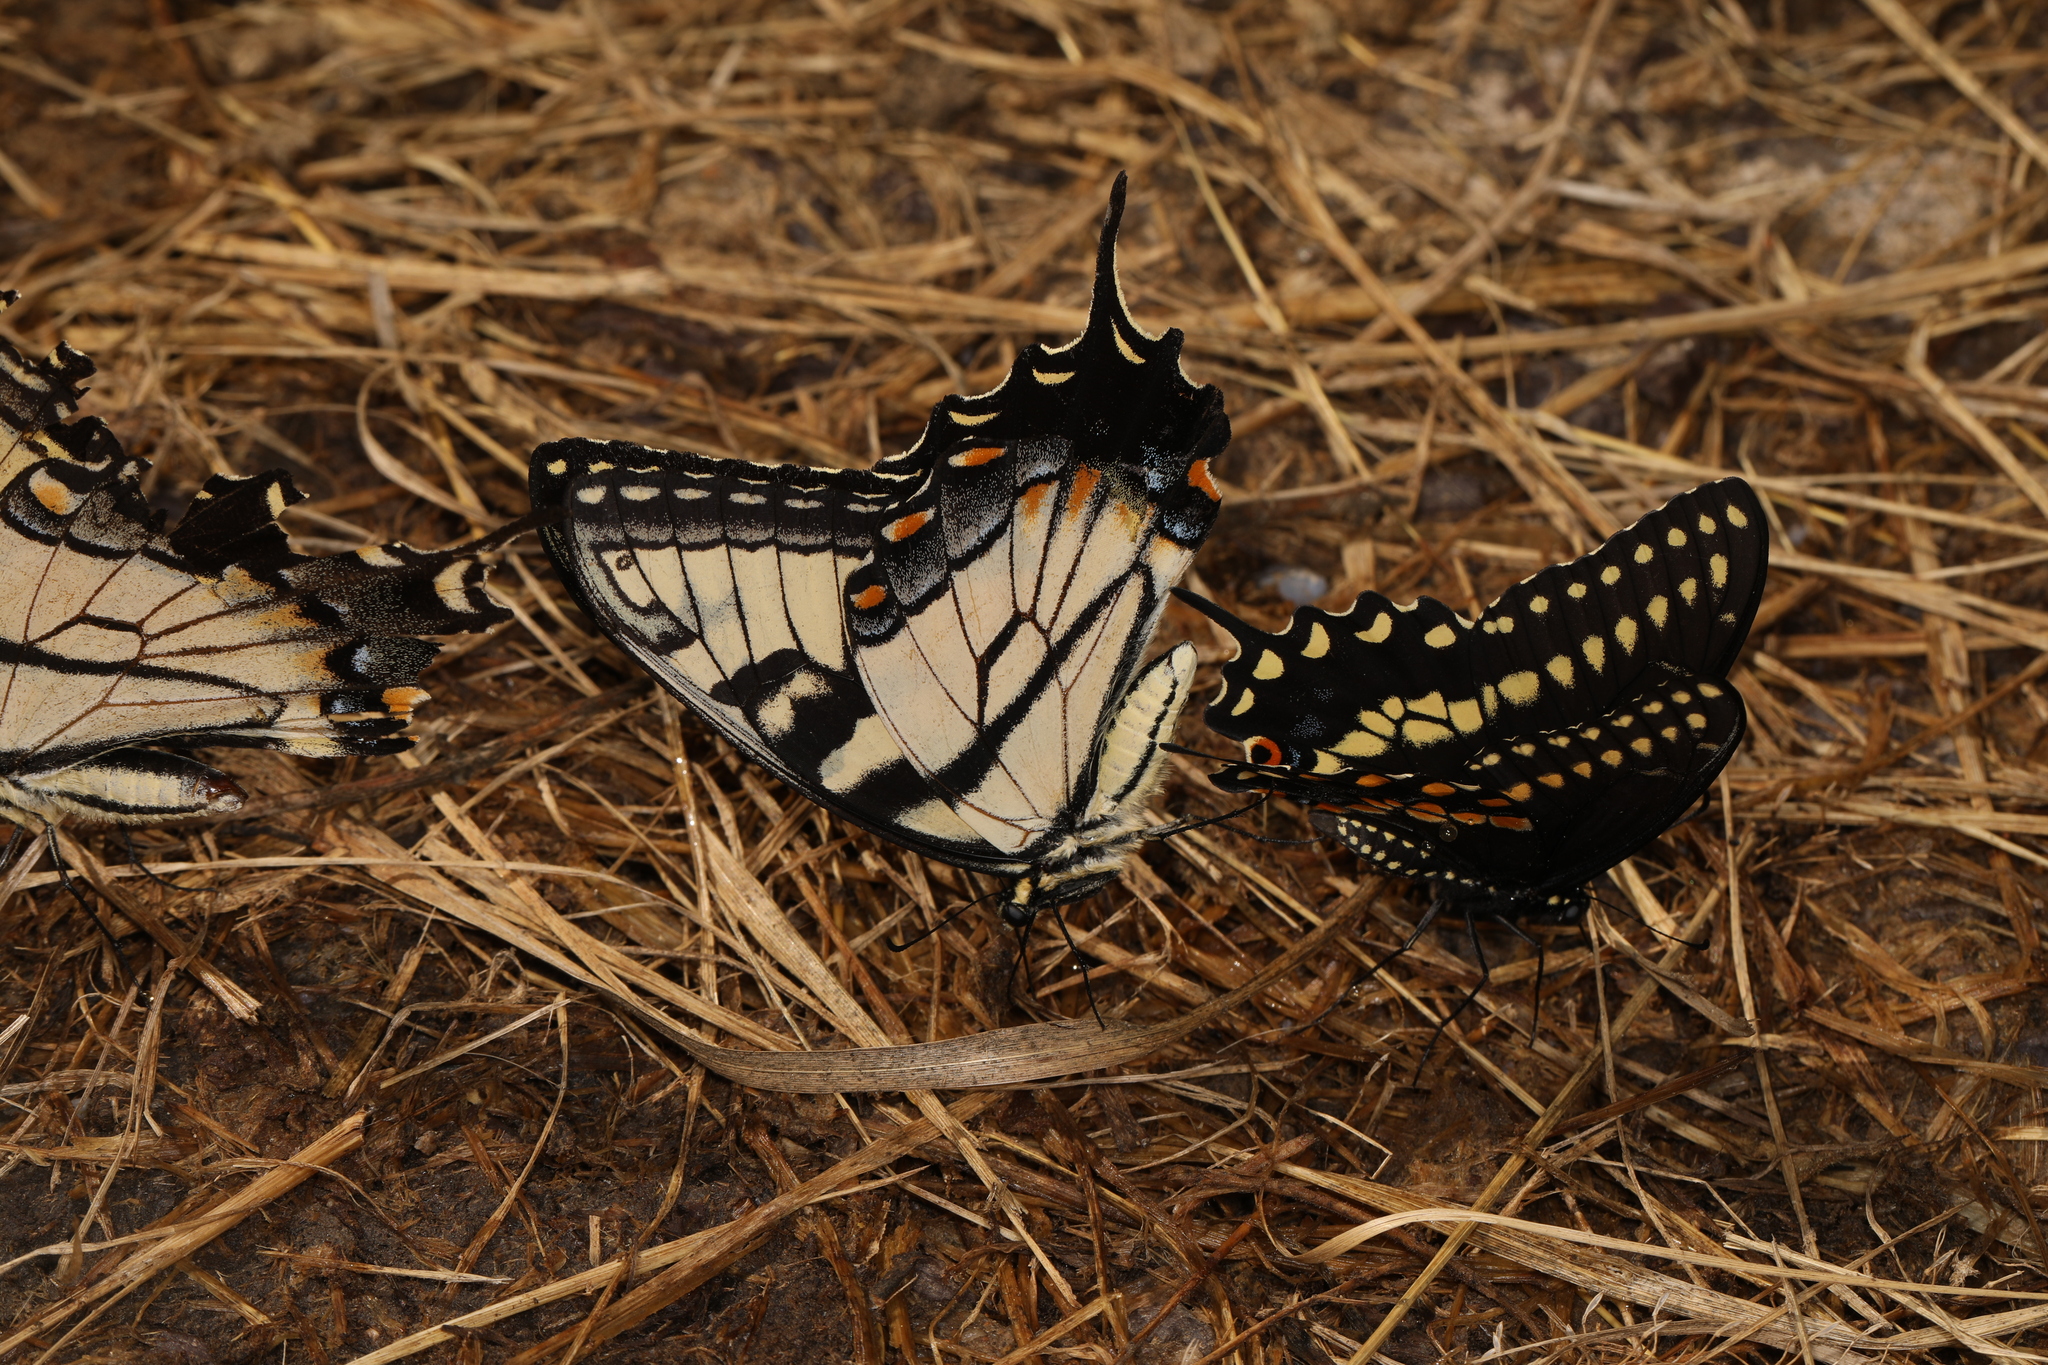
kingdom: Animalia
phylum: Arthropoda
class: Insecta
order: Lepidoptera
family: Papilionidae
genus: Papilio
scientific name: Papilio glaucus
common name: Tiger swallowtail
